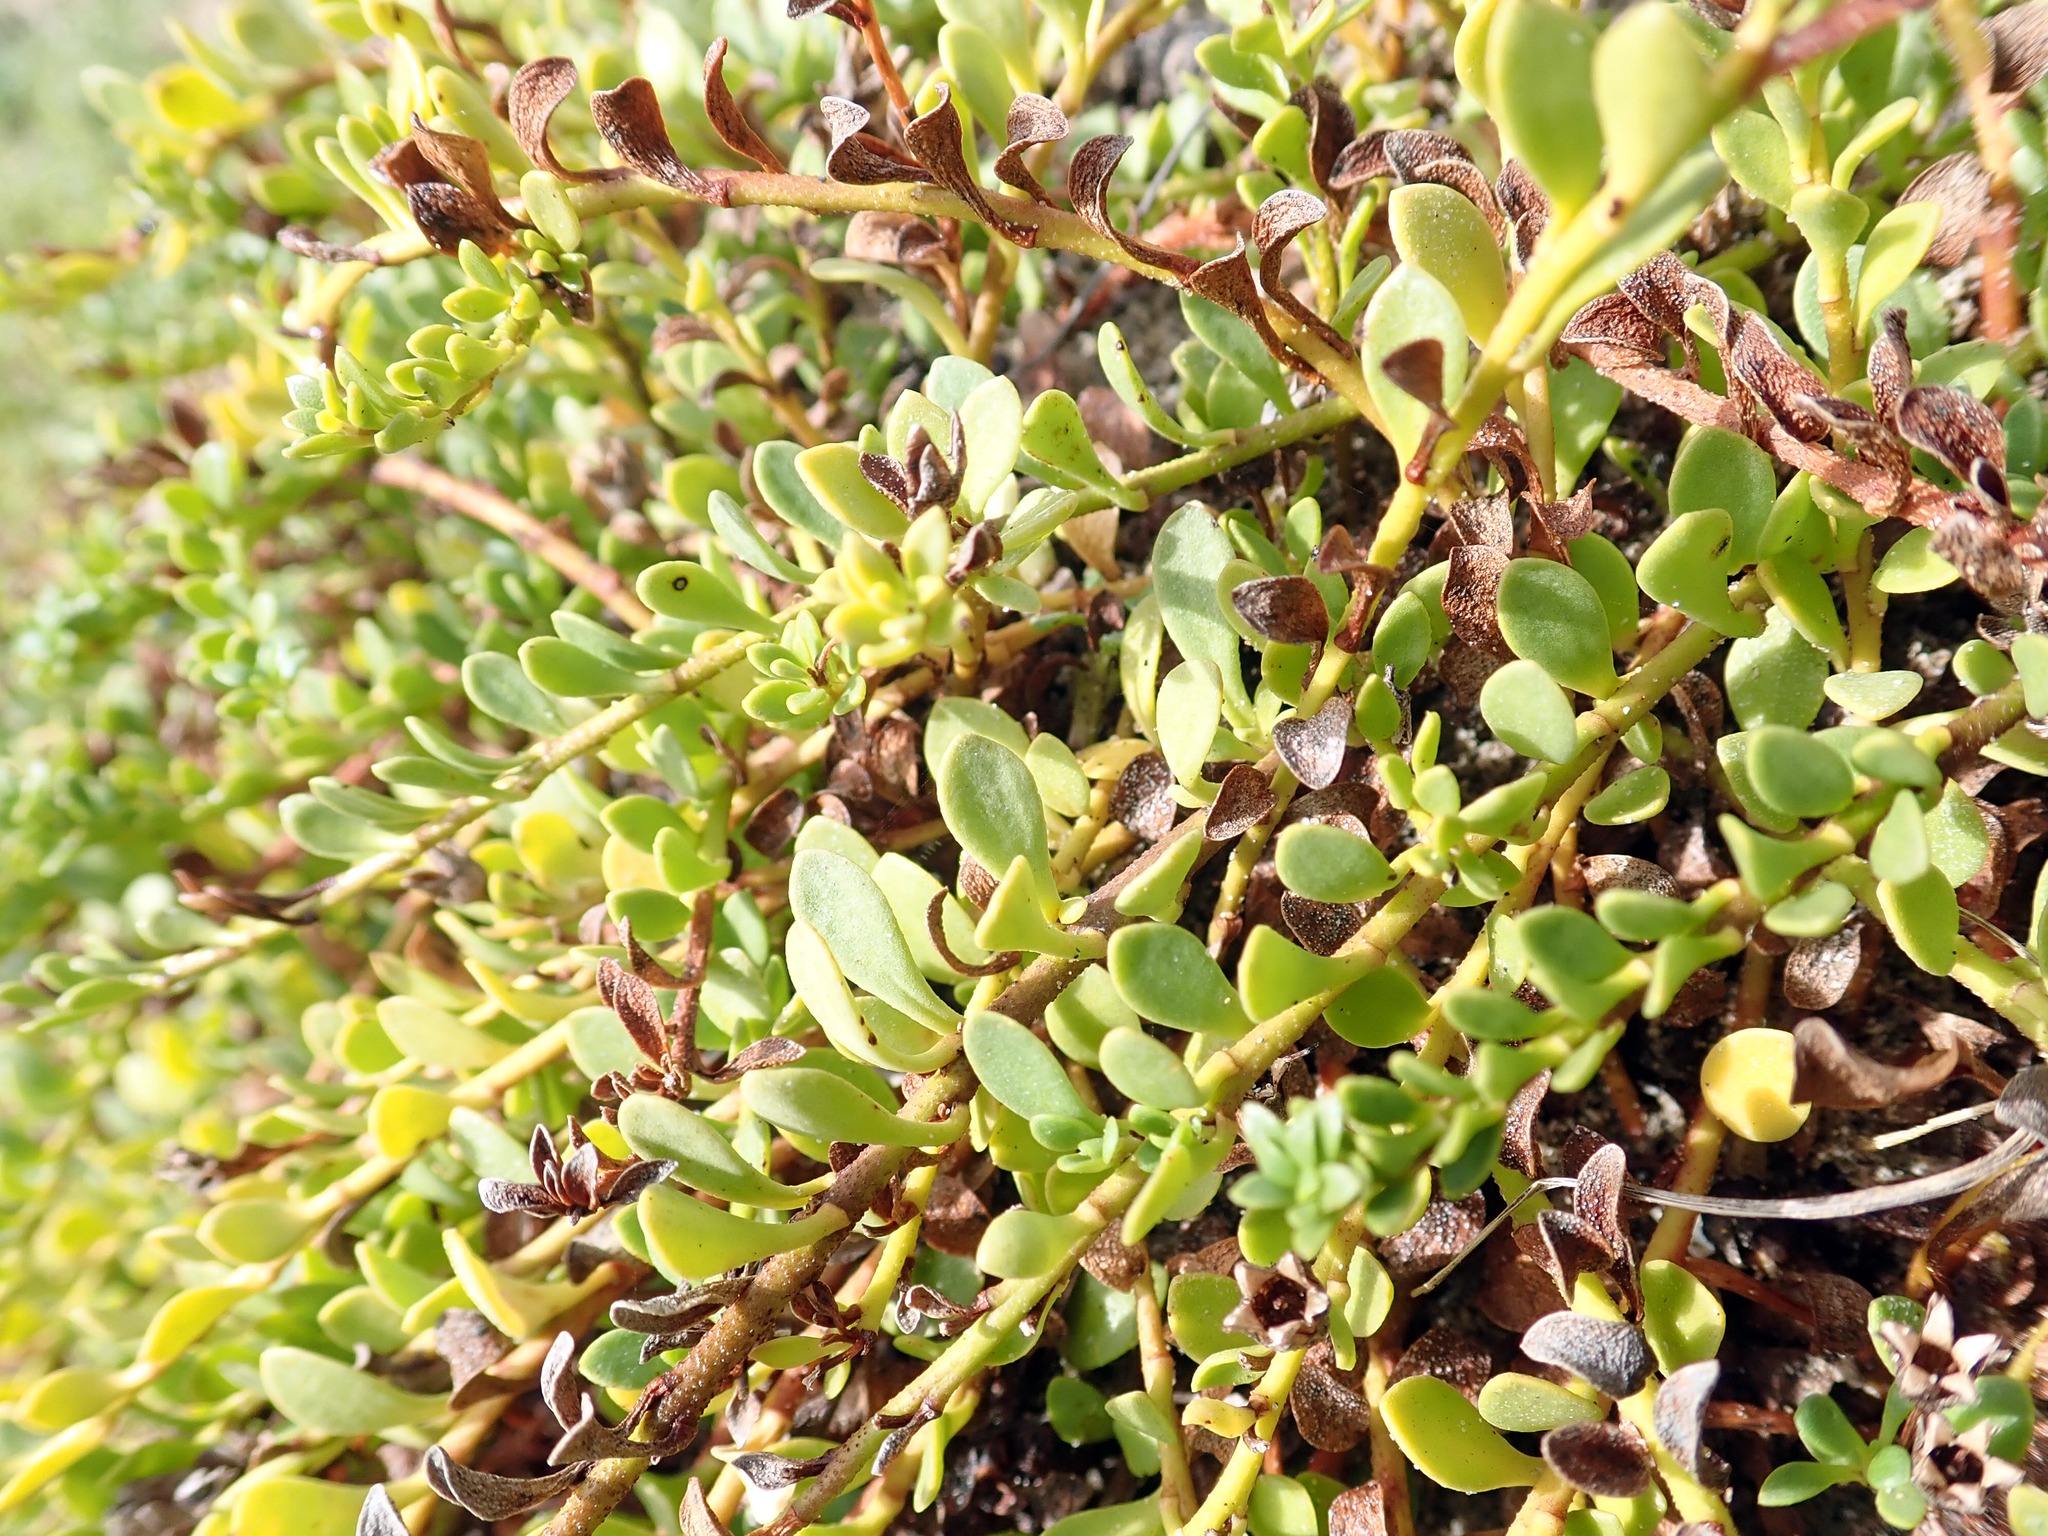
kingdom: Plantae
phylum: Tracheophyta
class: Magnoliopsida
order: Ericales
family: Primulaceae
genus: Samolus
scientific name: Samolus repens
